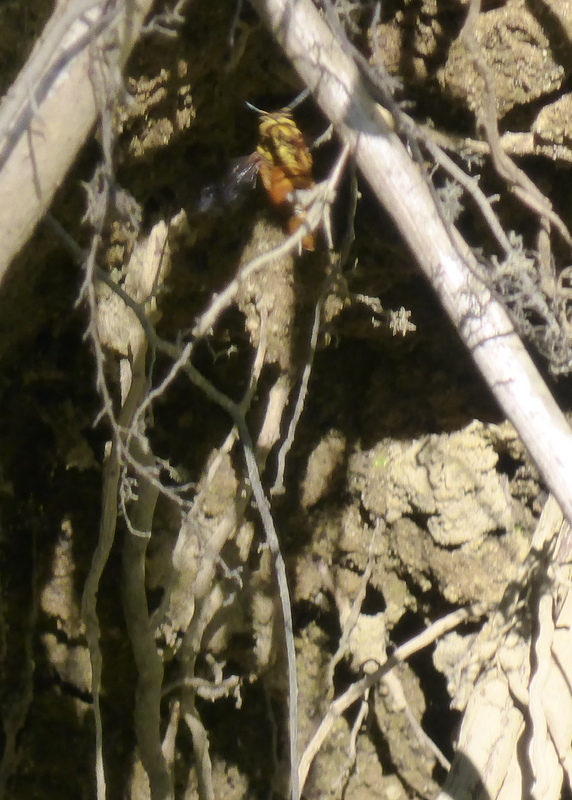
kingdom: Animalia
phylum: Arthropoda
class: Insecta
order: Hymenoptera
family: Vespidae
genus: Vespula
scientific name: Vespula squamosa
